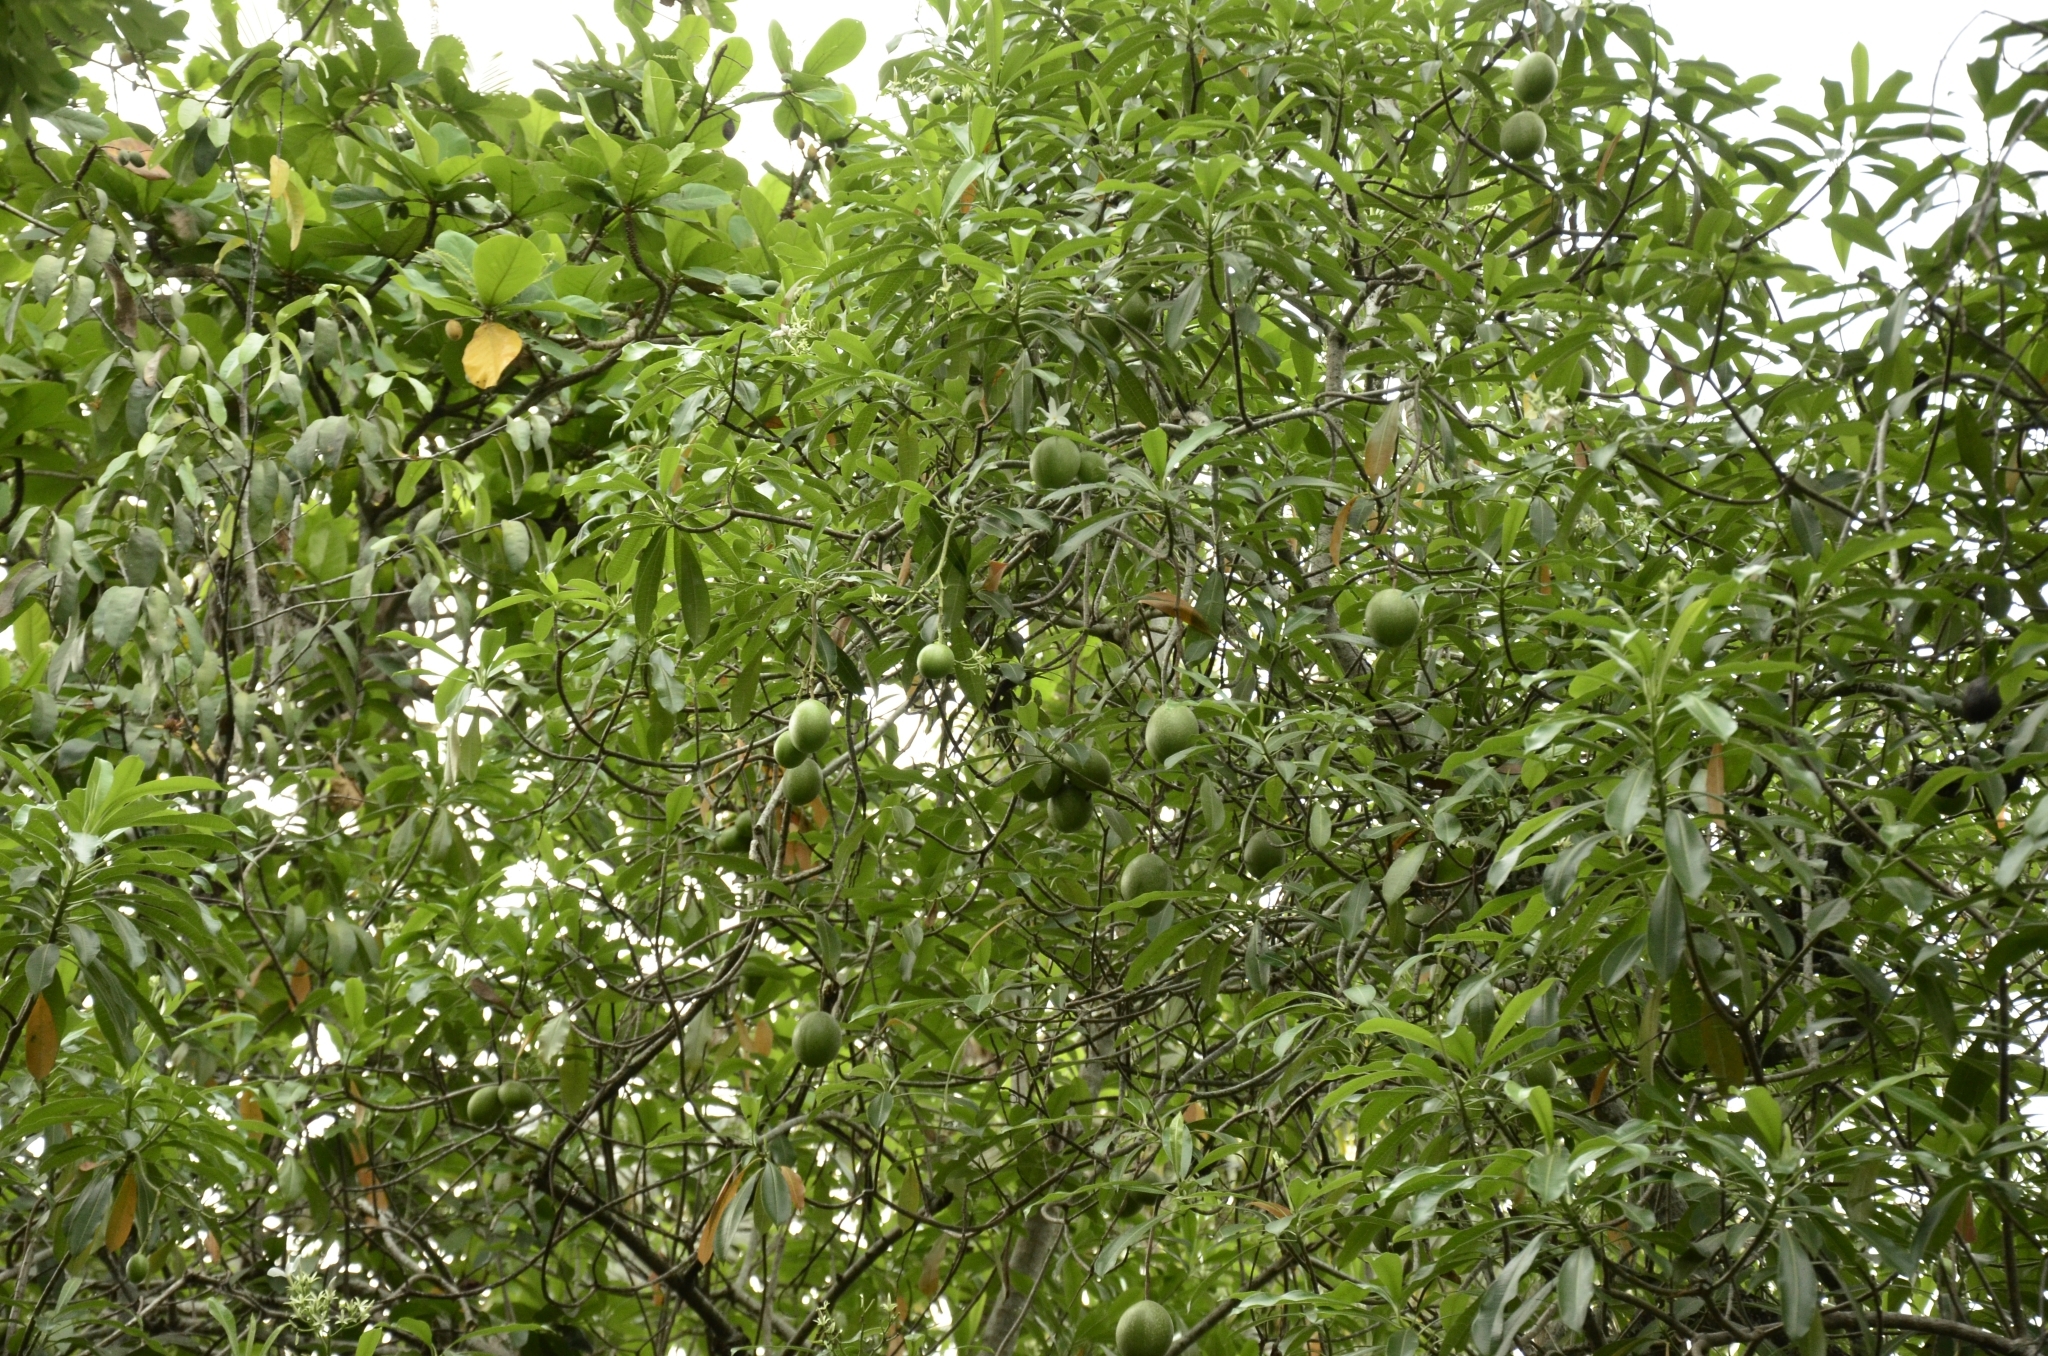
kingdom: Plantae
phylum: Tracheophyta
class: Magnoliopsida
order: Gentianales
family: Apocynaceae
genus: Cerbera
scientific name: Cerbera odollam
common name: Pong-pong
